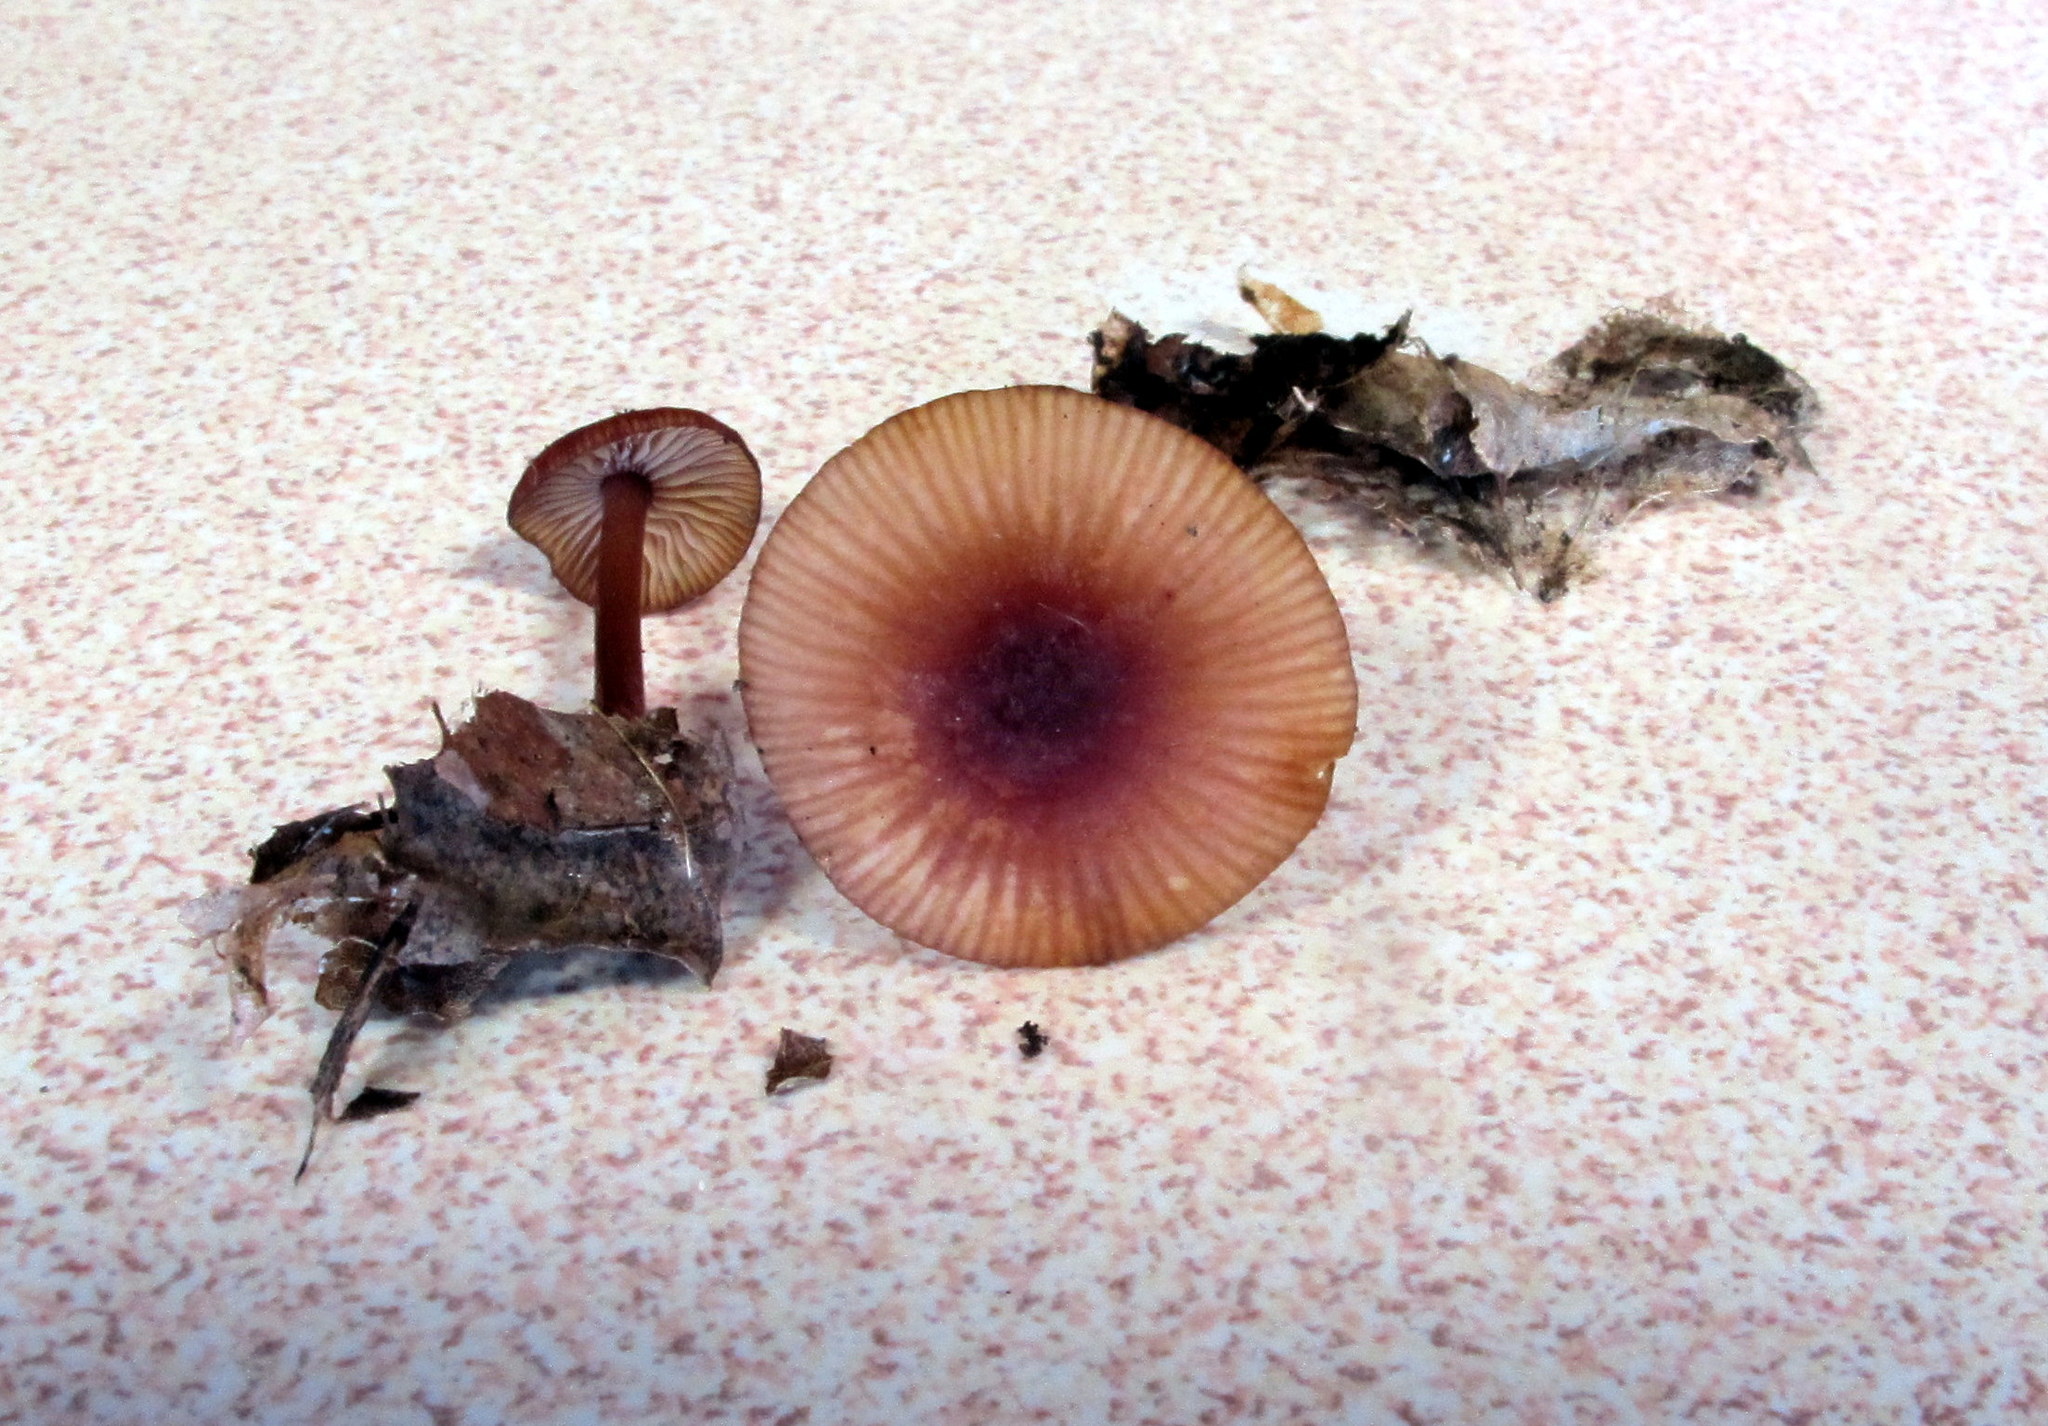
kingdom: Fungi
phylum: Basidiomycota
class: Agaricomycetes
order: Agaricales
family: Mycenaceae
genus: Mycena
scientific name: Mycena atkinsoniana
